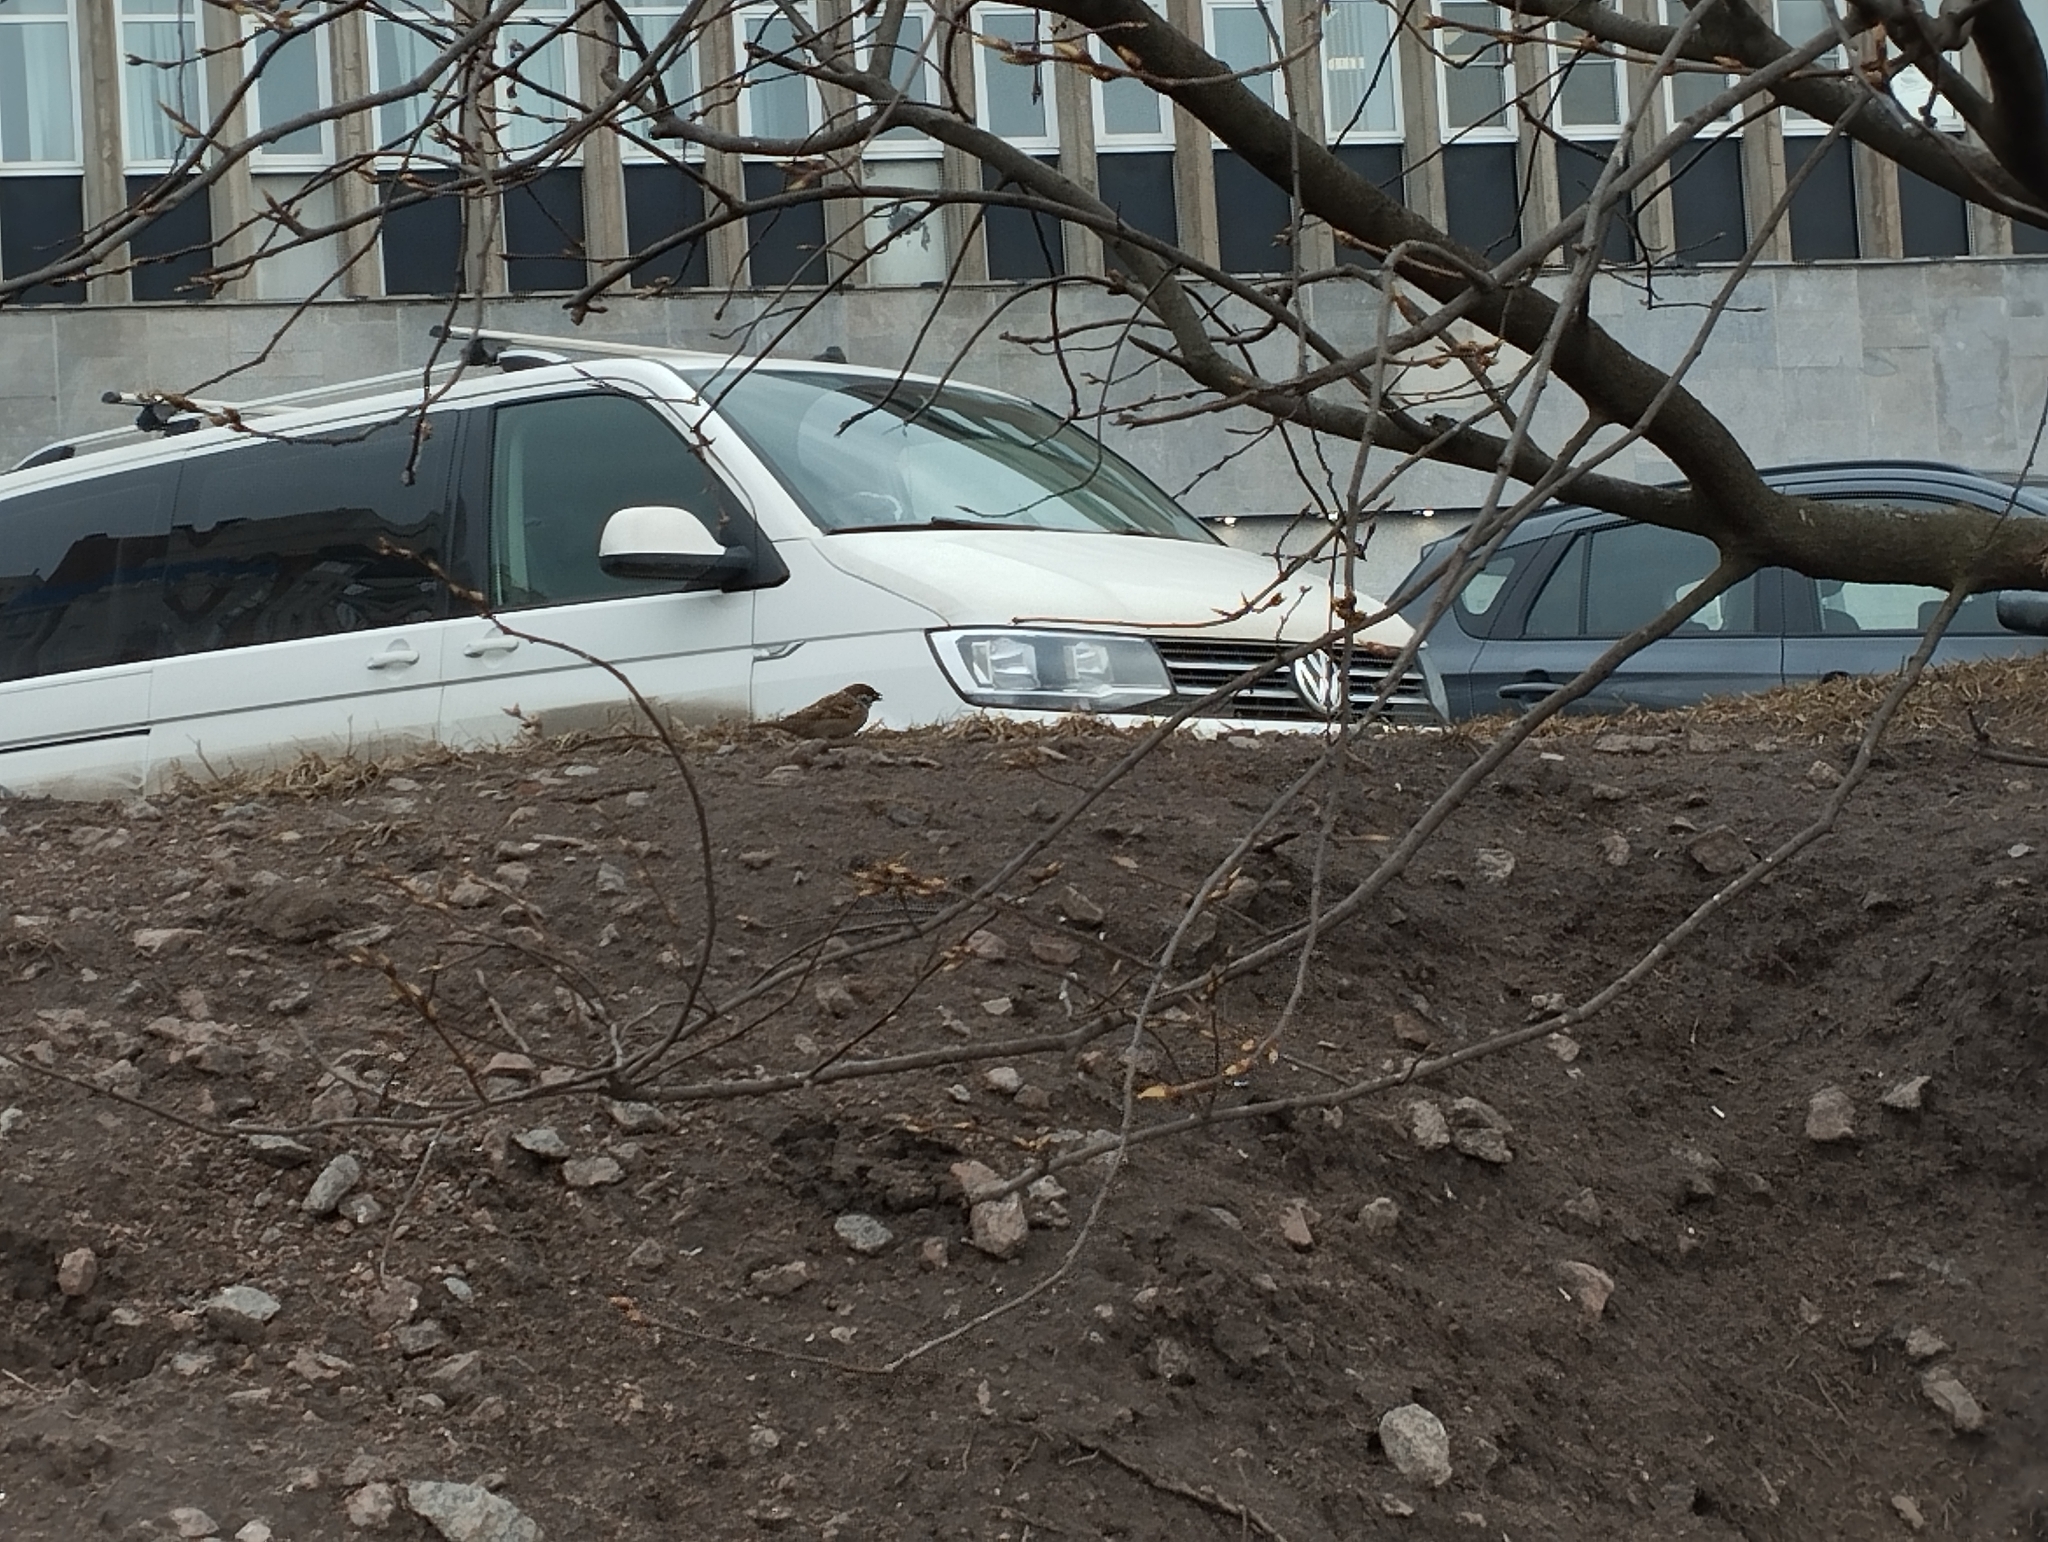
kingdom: Animalia
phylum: Chordata
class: Aves
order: Passeriformes
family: Passeridae
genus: Passer
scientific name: Passer montanus
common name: Eurasian tree sparrow
